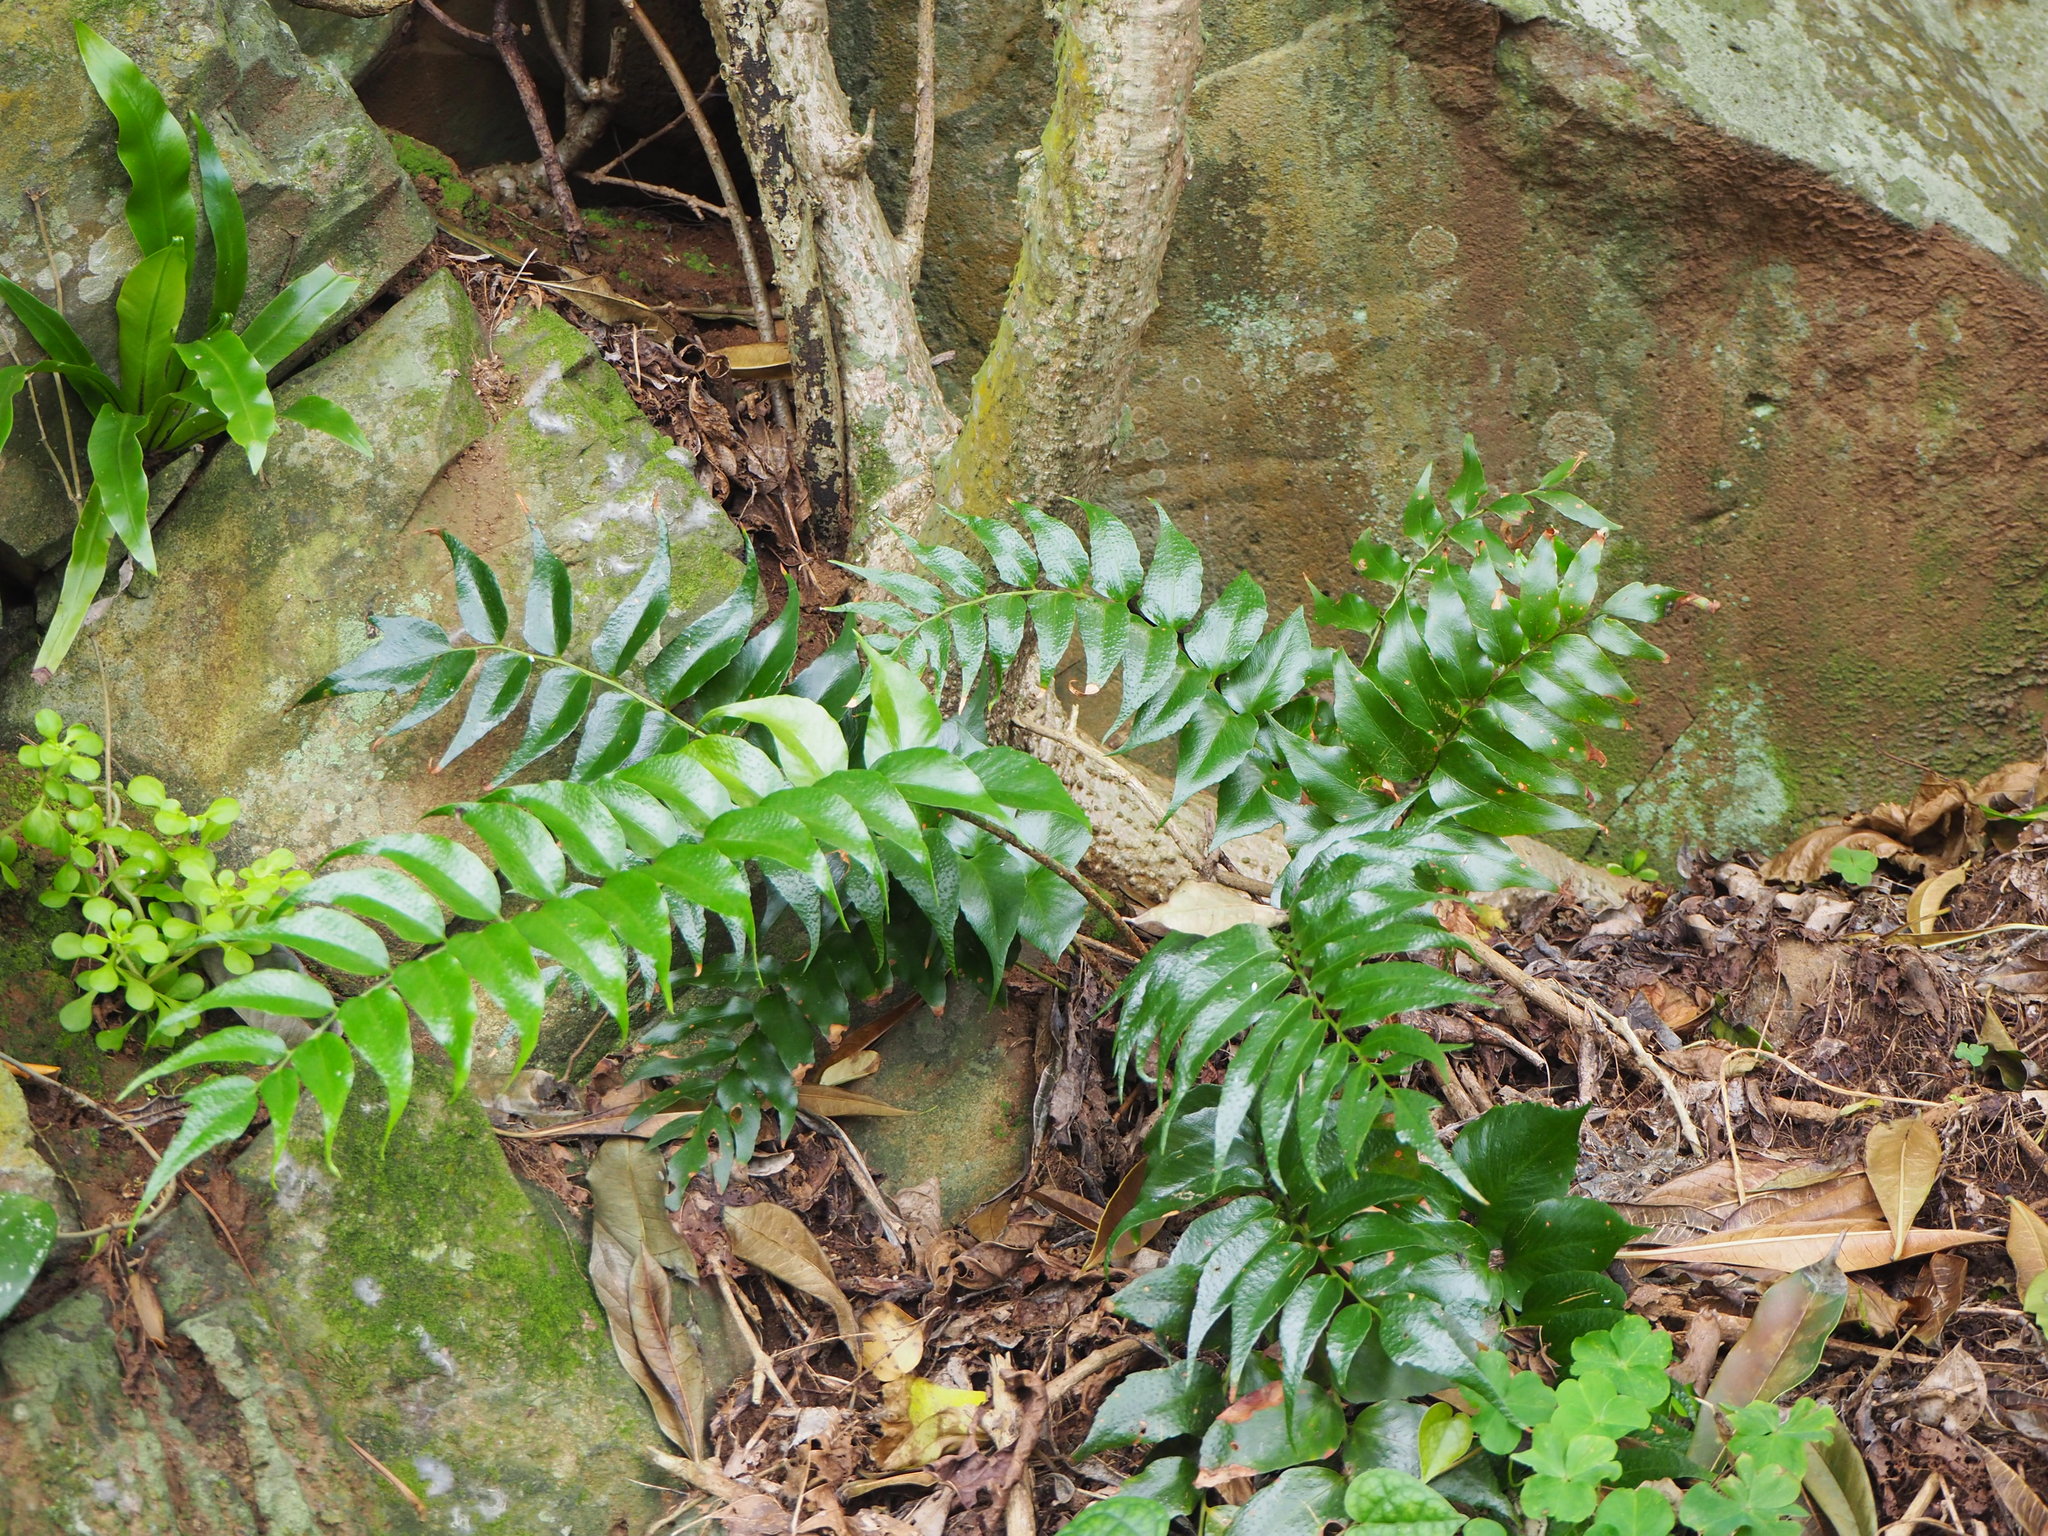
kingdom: Plantae
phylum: Tracheophyta
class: Polypodiopsida
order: Polypodiales
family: Dryopteridaceae
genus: Cyrtomium
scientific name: Cyrtomium falcatum
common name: House holly-fern
